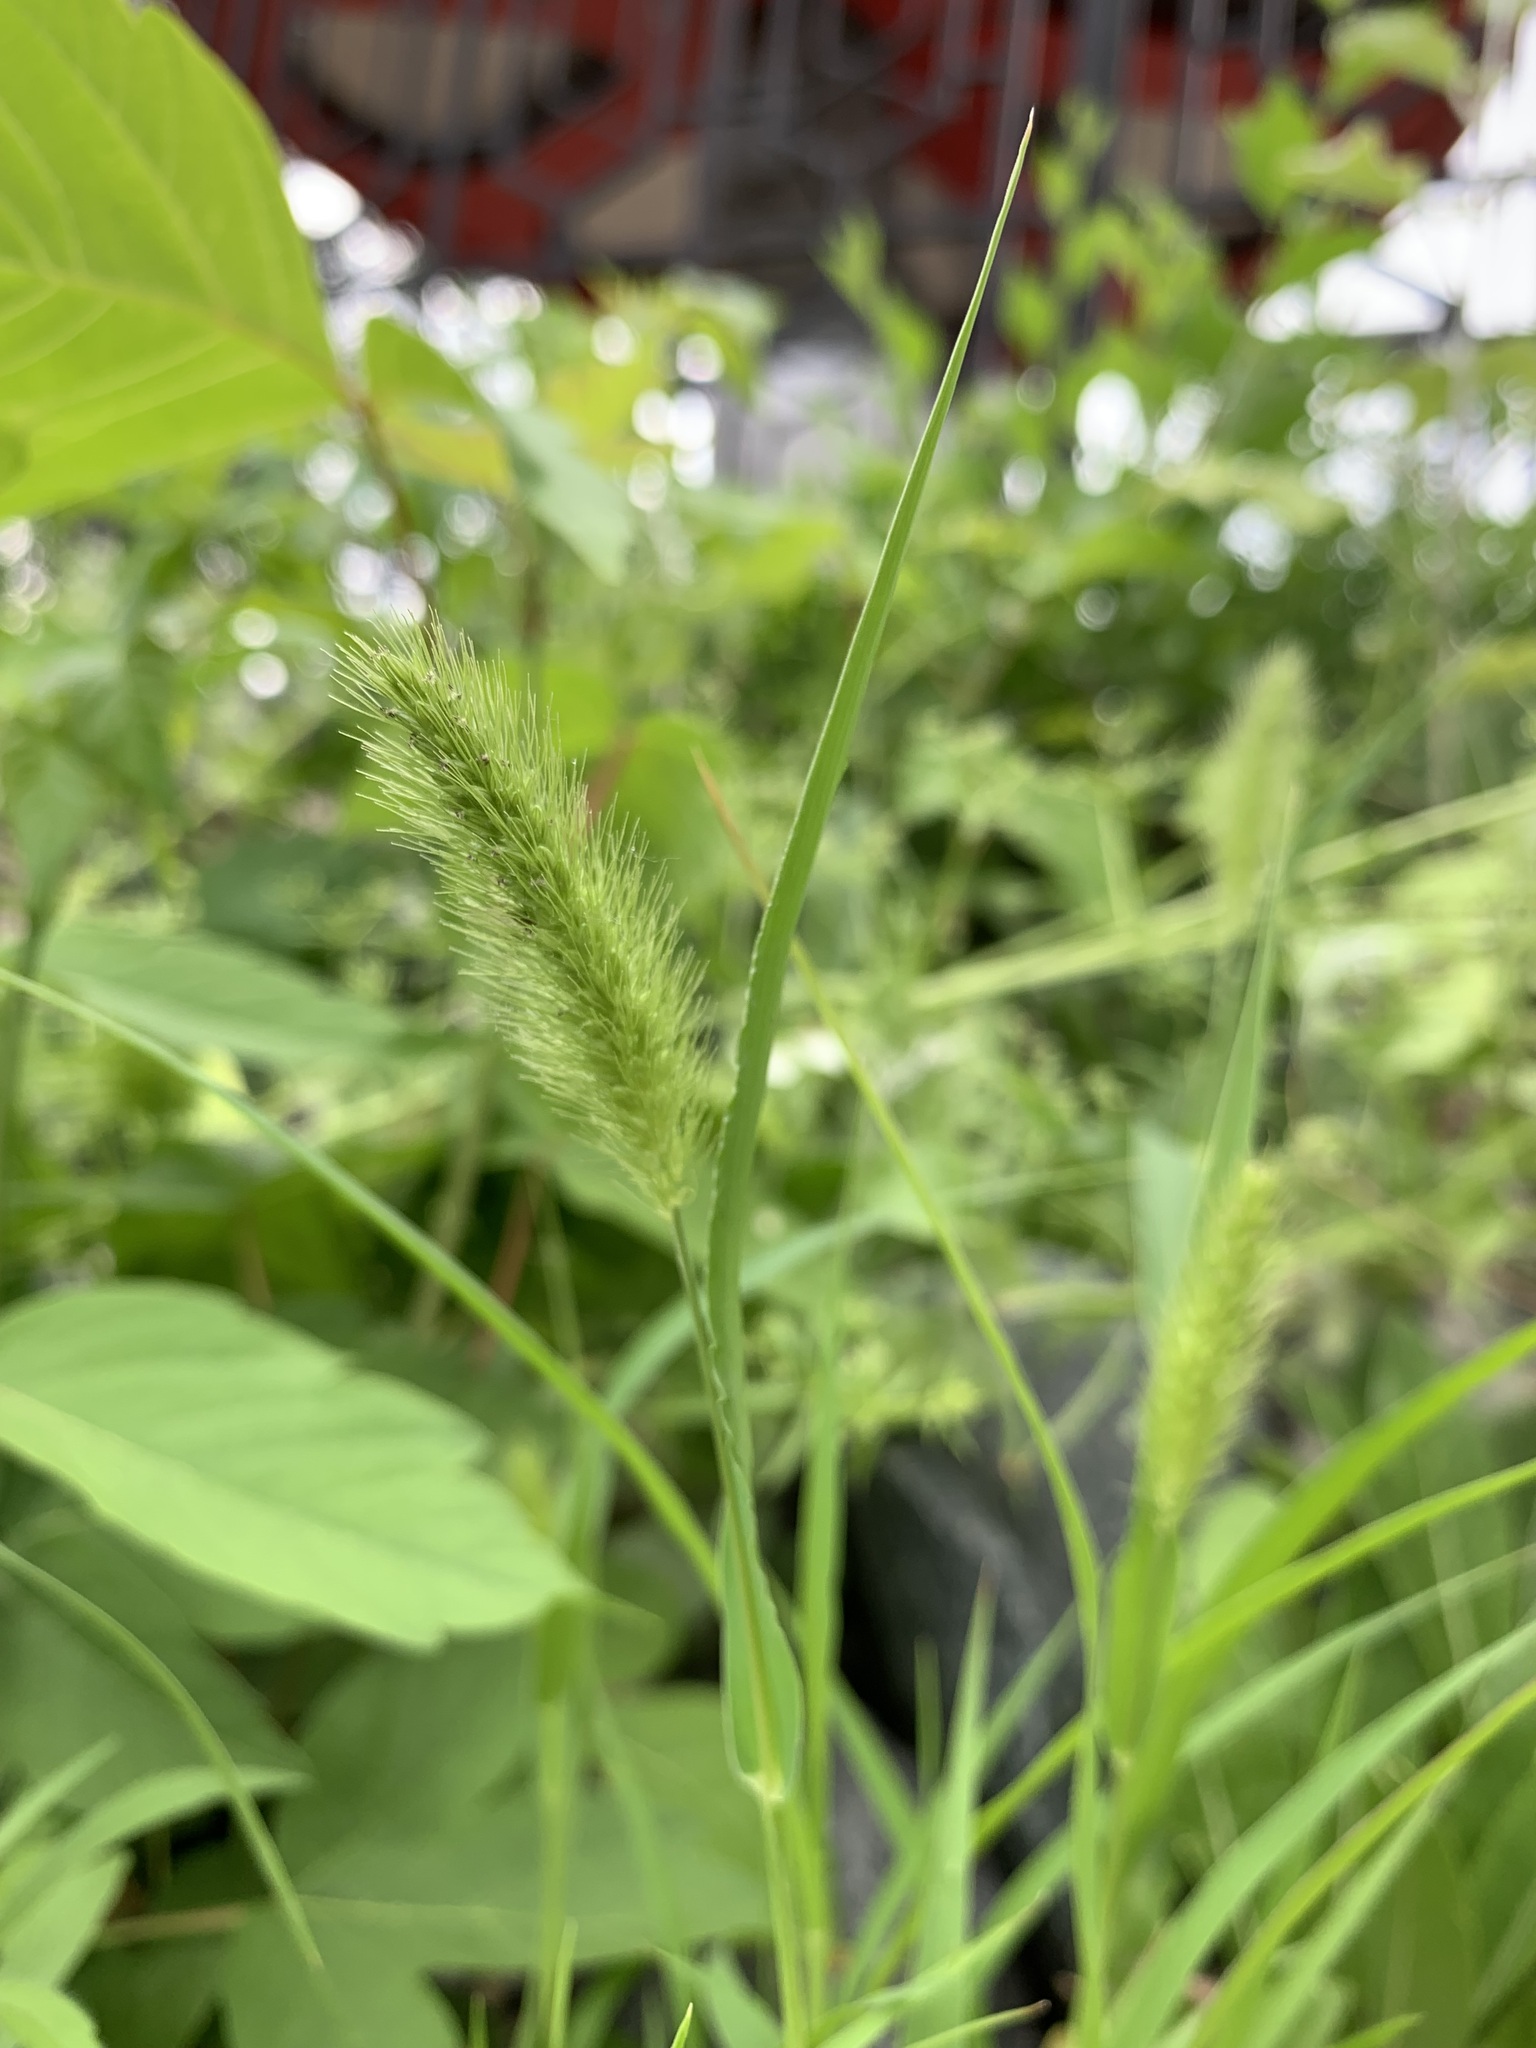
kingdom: Plantae
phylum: Tracheophyta
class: Liliopsida
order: Poales
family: Poaceae
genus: Setaria
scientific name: Setaria viridis
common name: Green bristlegrass
